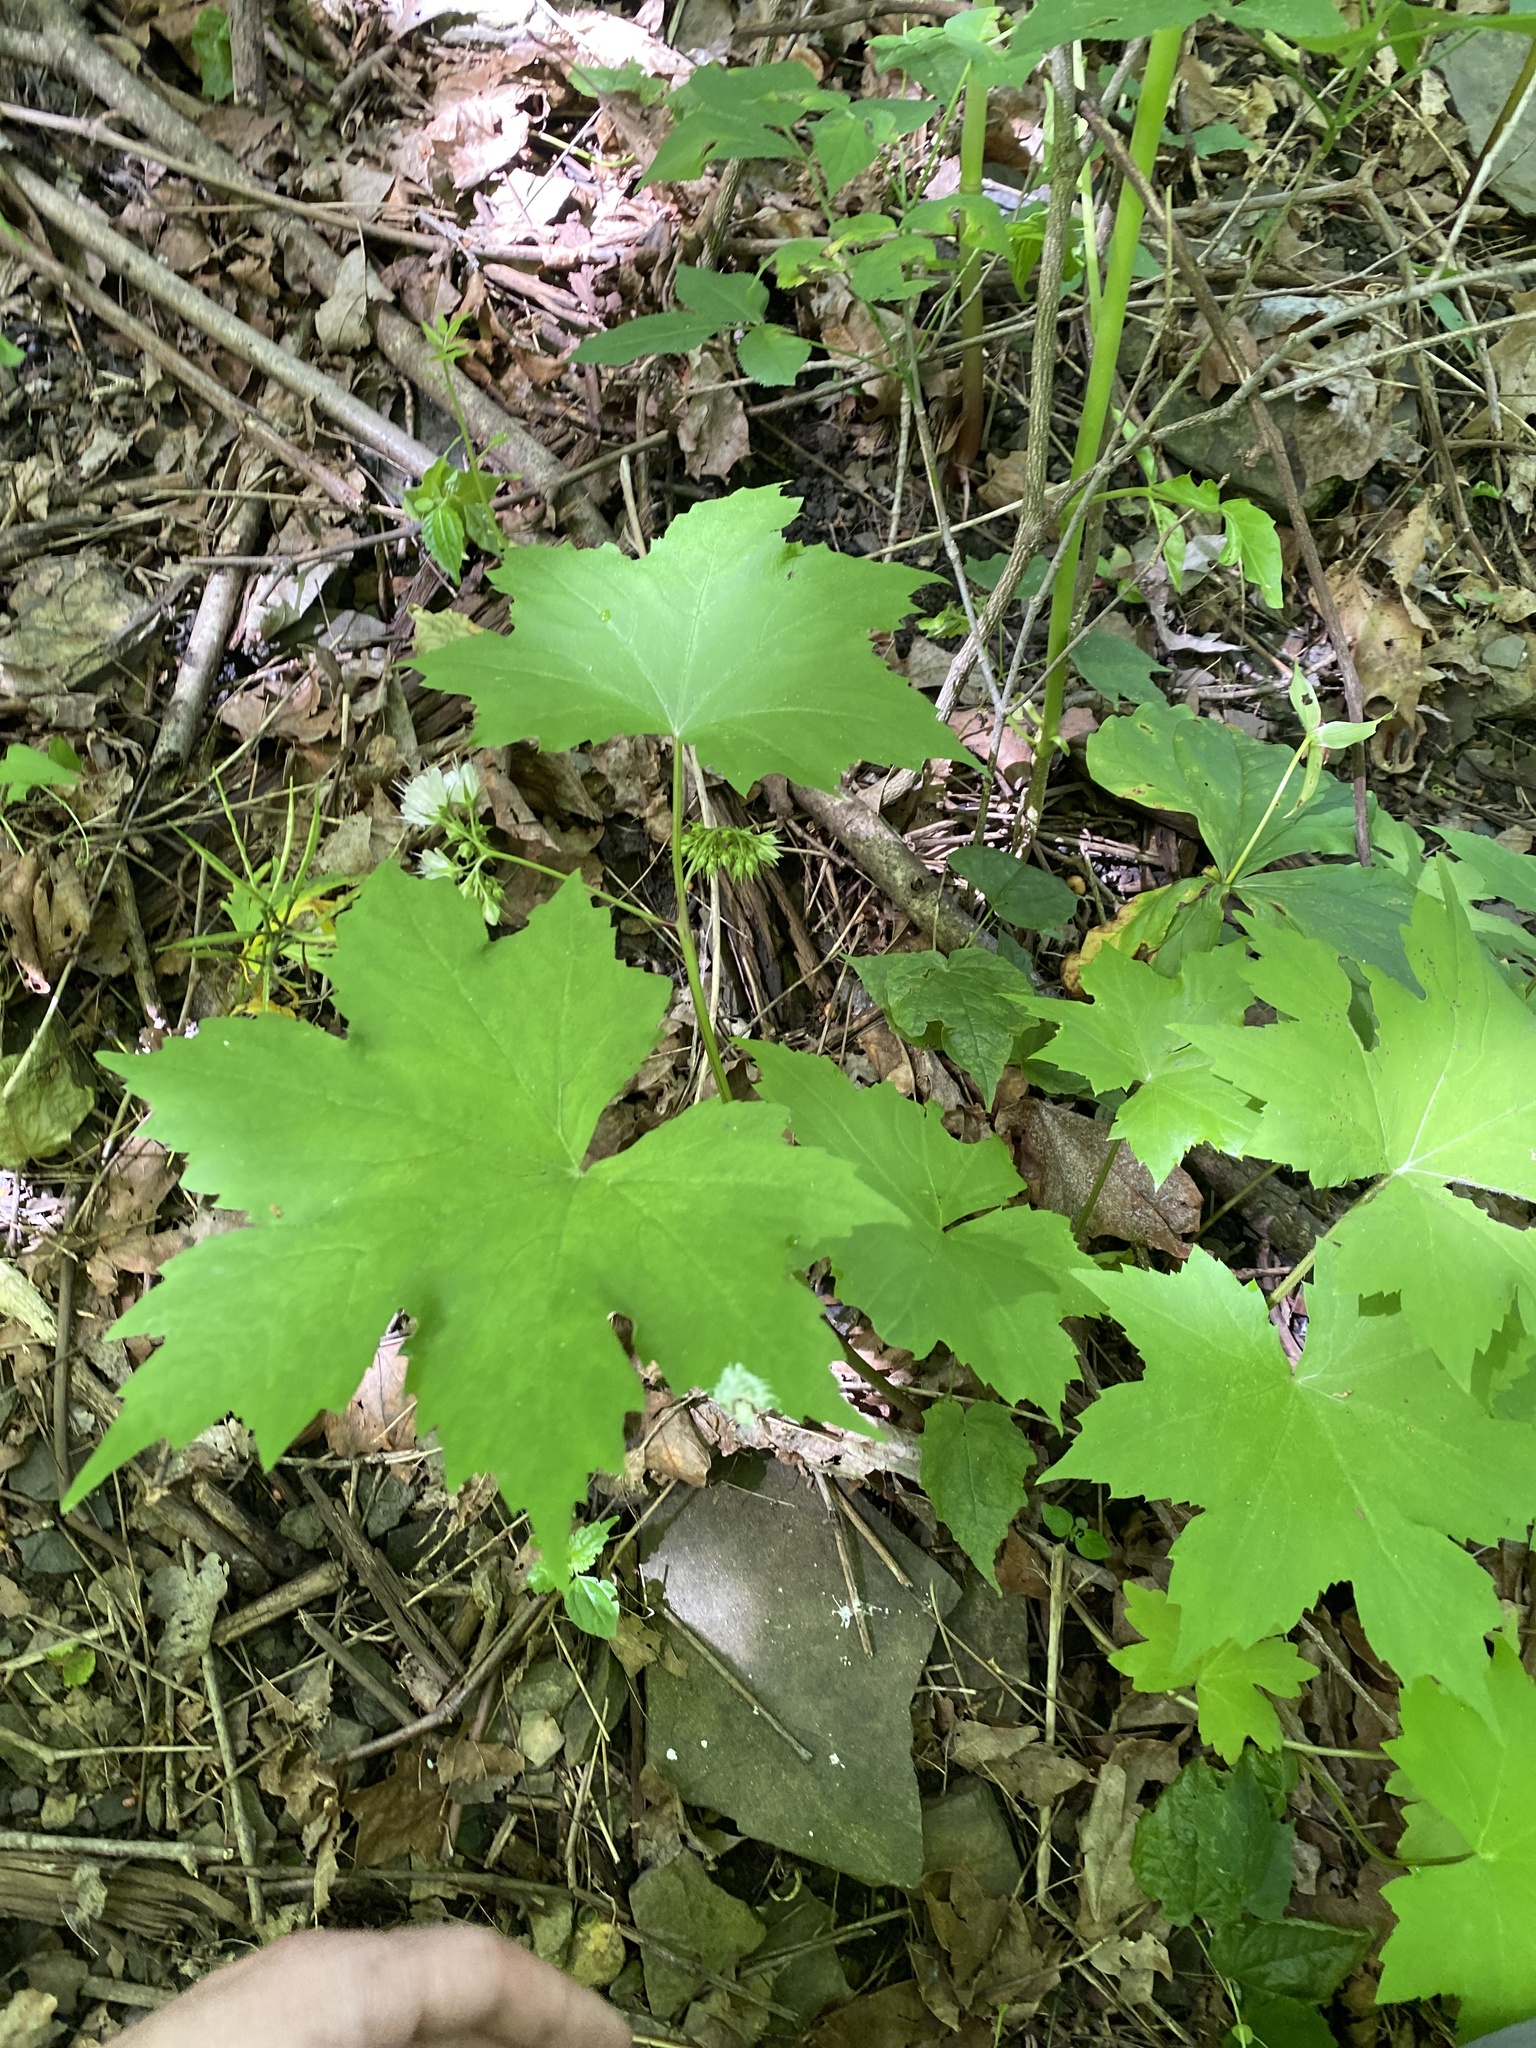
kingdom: Plantae
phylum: Tracheophyta
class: Magnoliopsida
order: Boraginales
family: Hydrophyllaceae
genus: Hydrophyllum
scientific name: Hydrophyllum canadense
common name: Canada waterleaf
